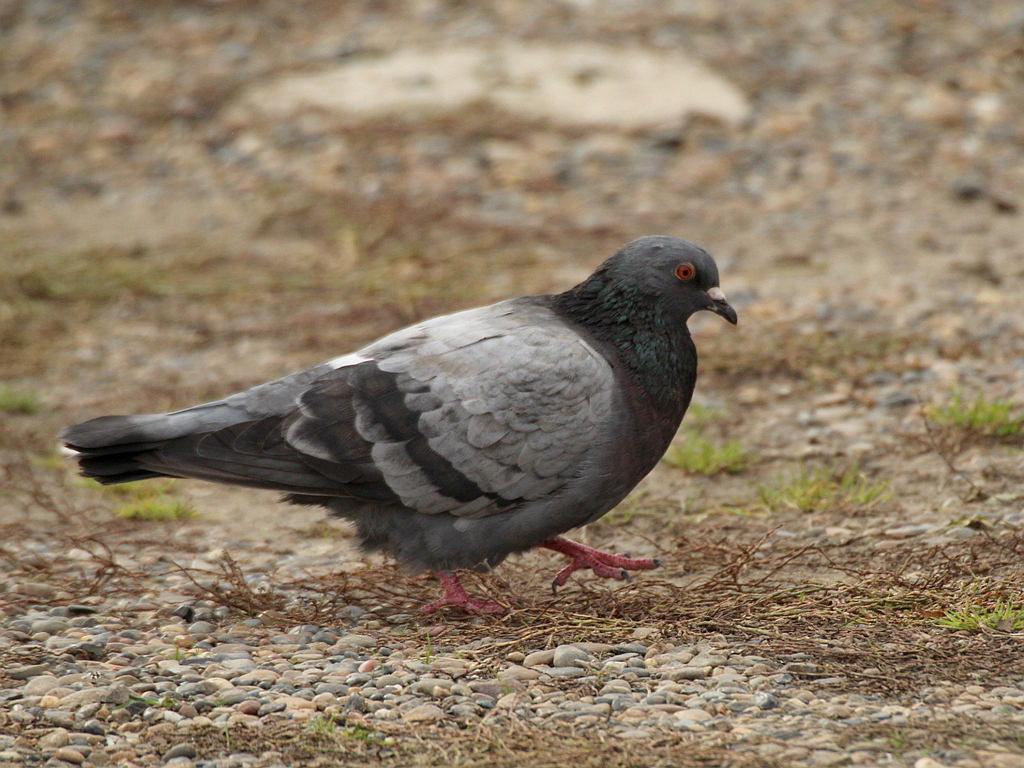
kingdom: Animalia
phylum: Chordata
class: Aves
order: Columbiformes
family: Columbidae
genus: Columba
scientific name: Columba livia
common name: Rock pigeon
